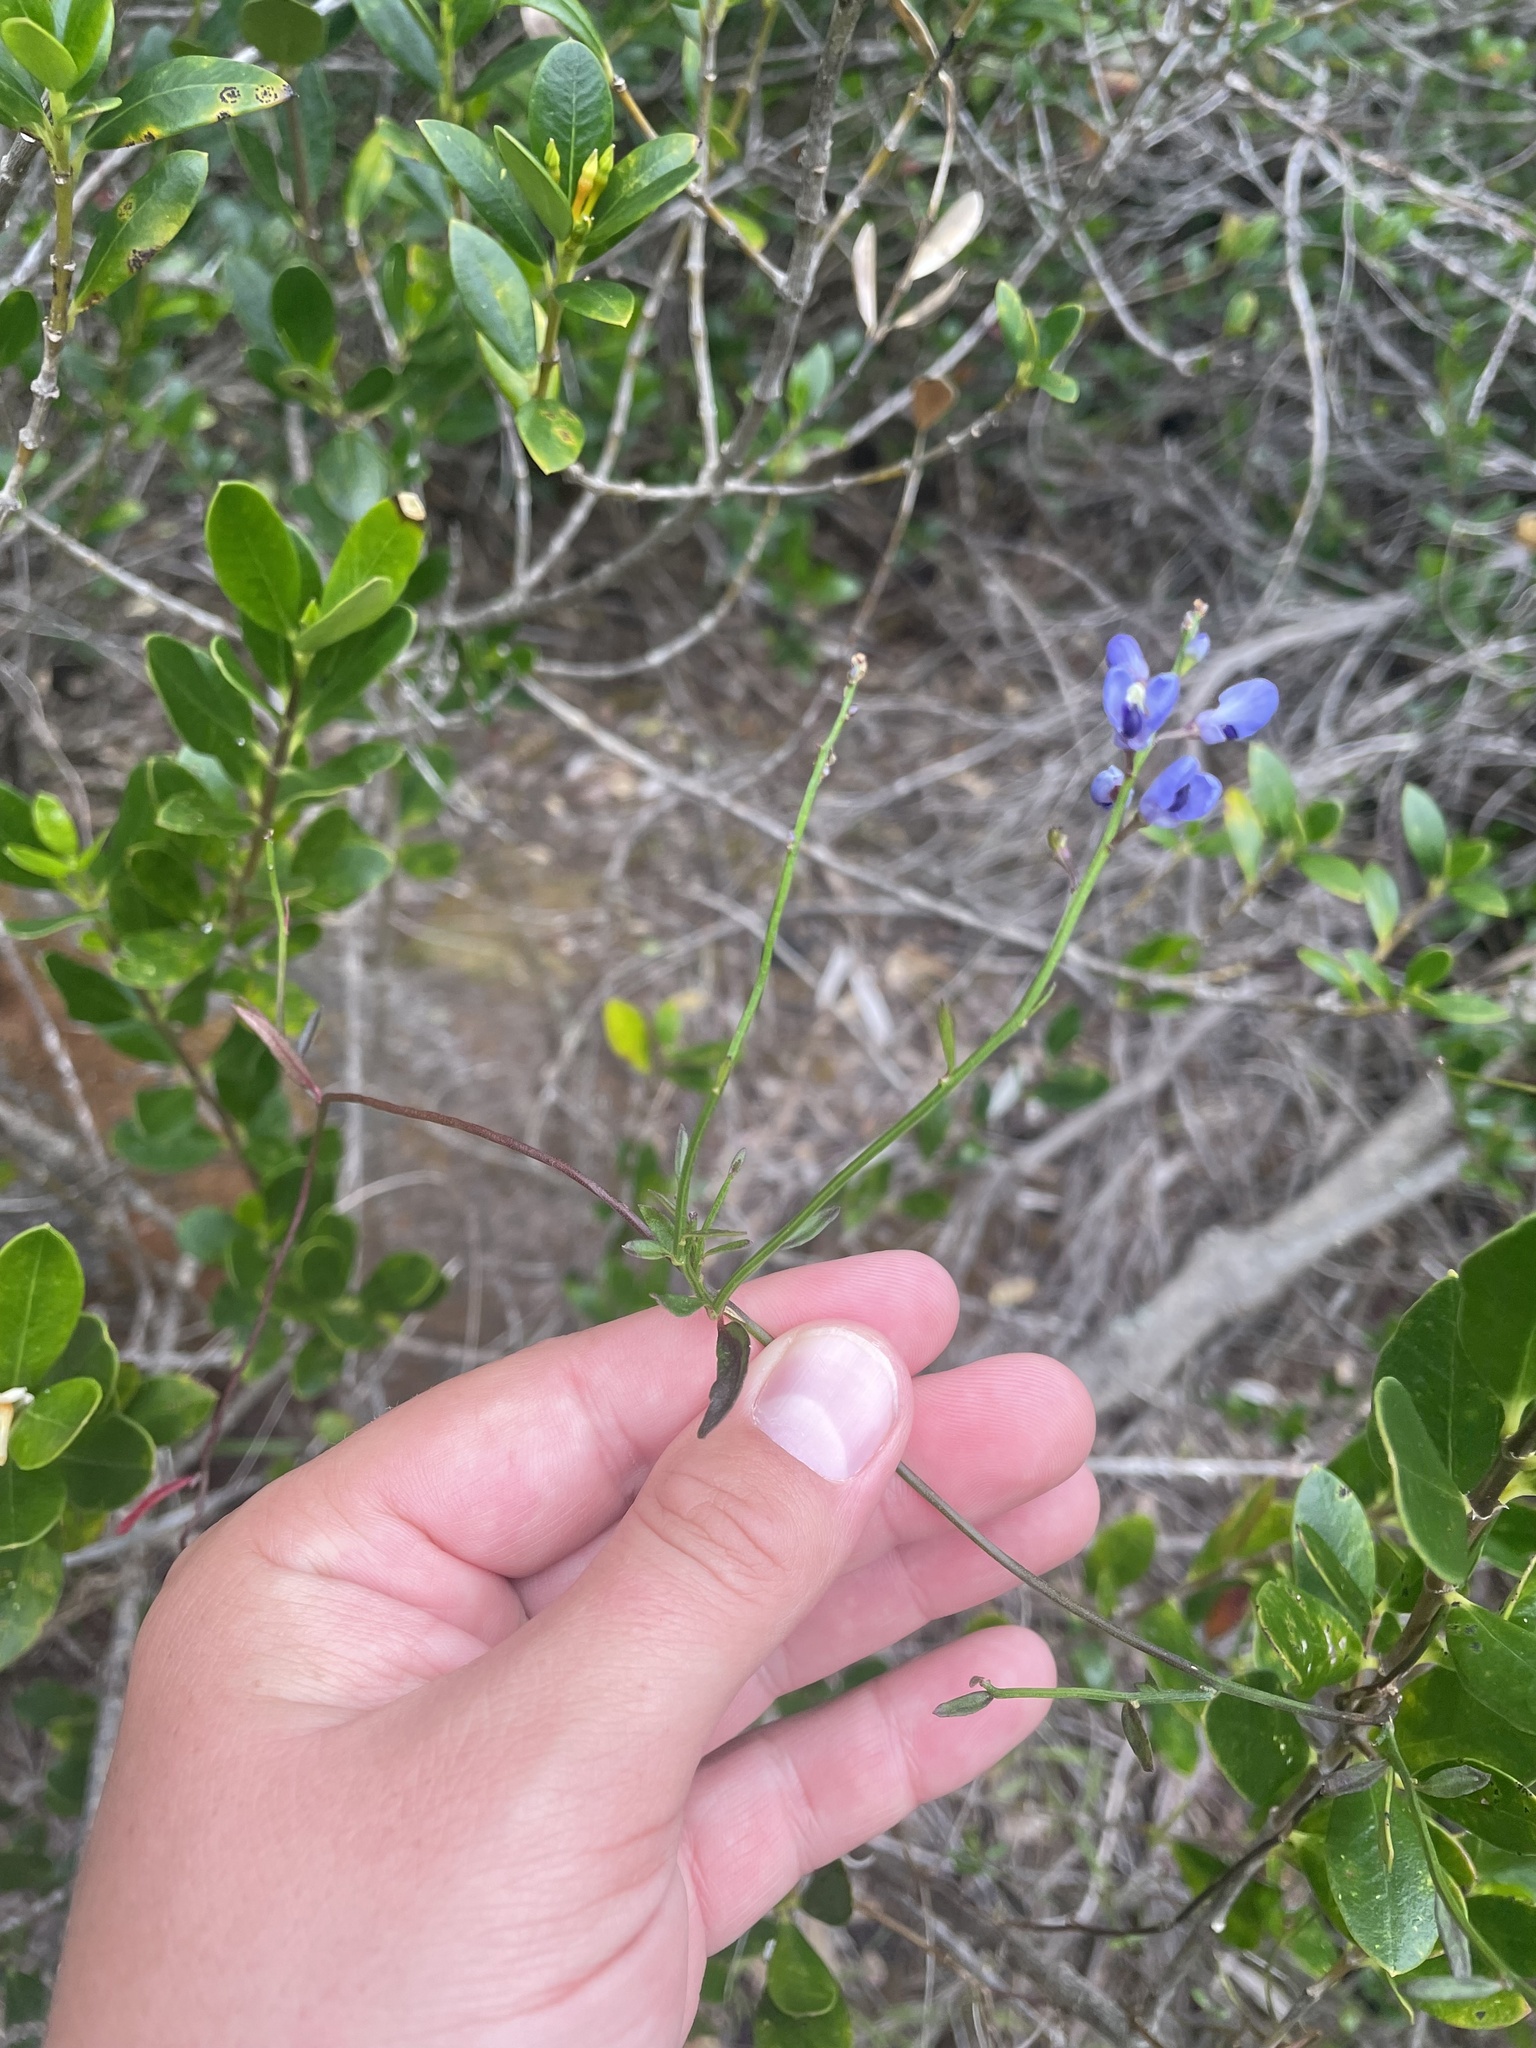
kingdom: Plantae
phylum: Tracheophyta
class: Magnoliopsida
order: Fabales
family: Polygalaceae
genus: Comesperma
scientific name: Comesperma volubile
